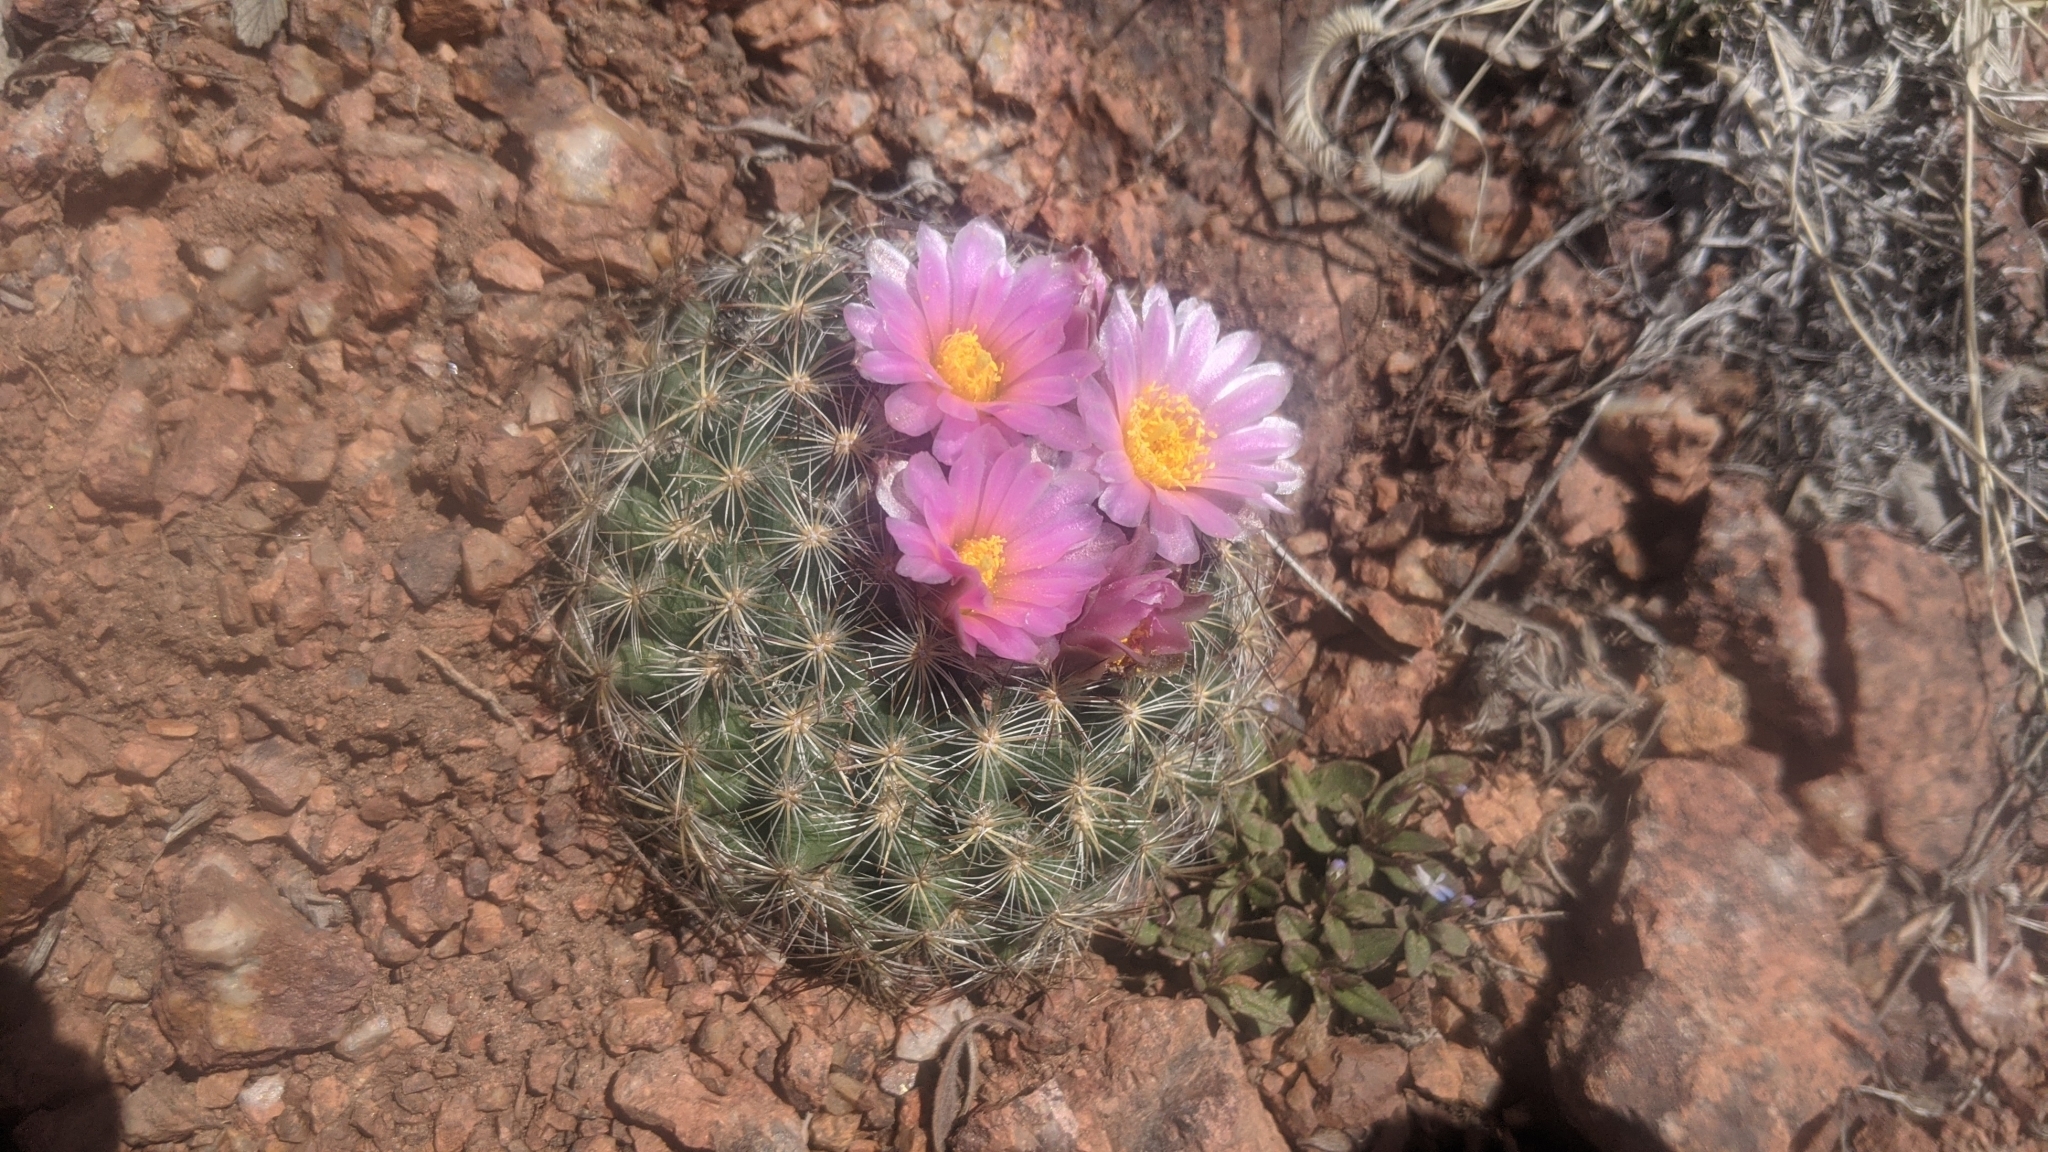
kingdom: Plantae
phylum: Tracheophyta
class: Magnoliopsida
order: Caryophyllales
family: Cactaceae
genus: Pediocactus
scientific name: Pediocactus simpsonii
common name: Simpson's hedgehog cactus
